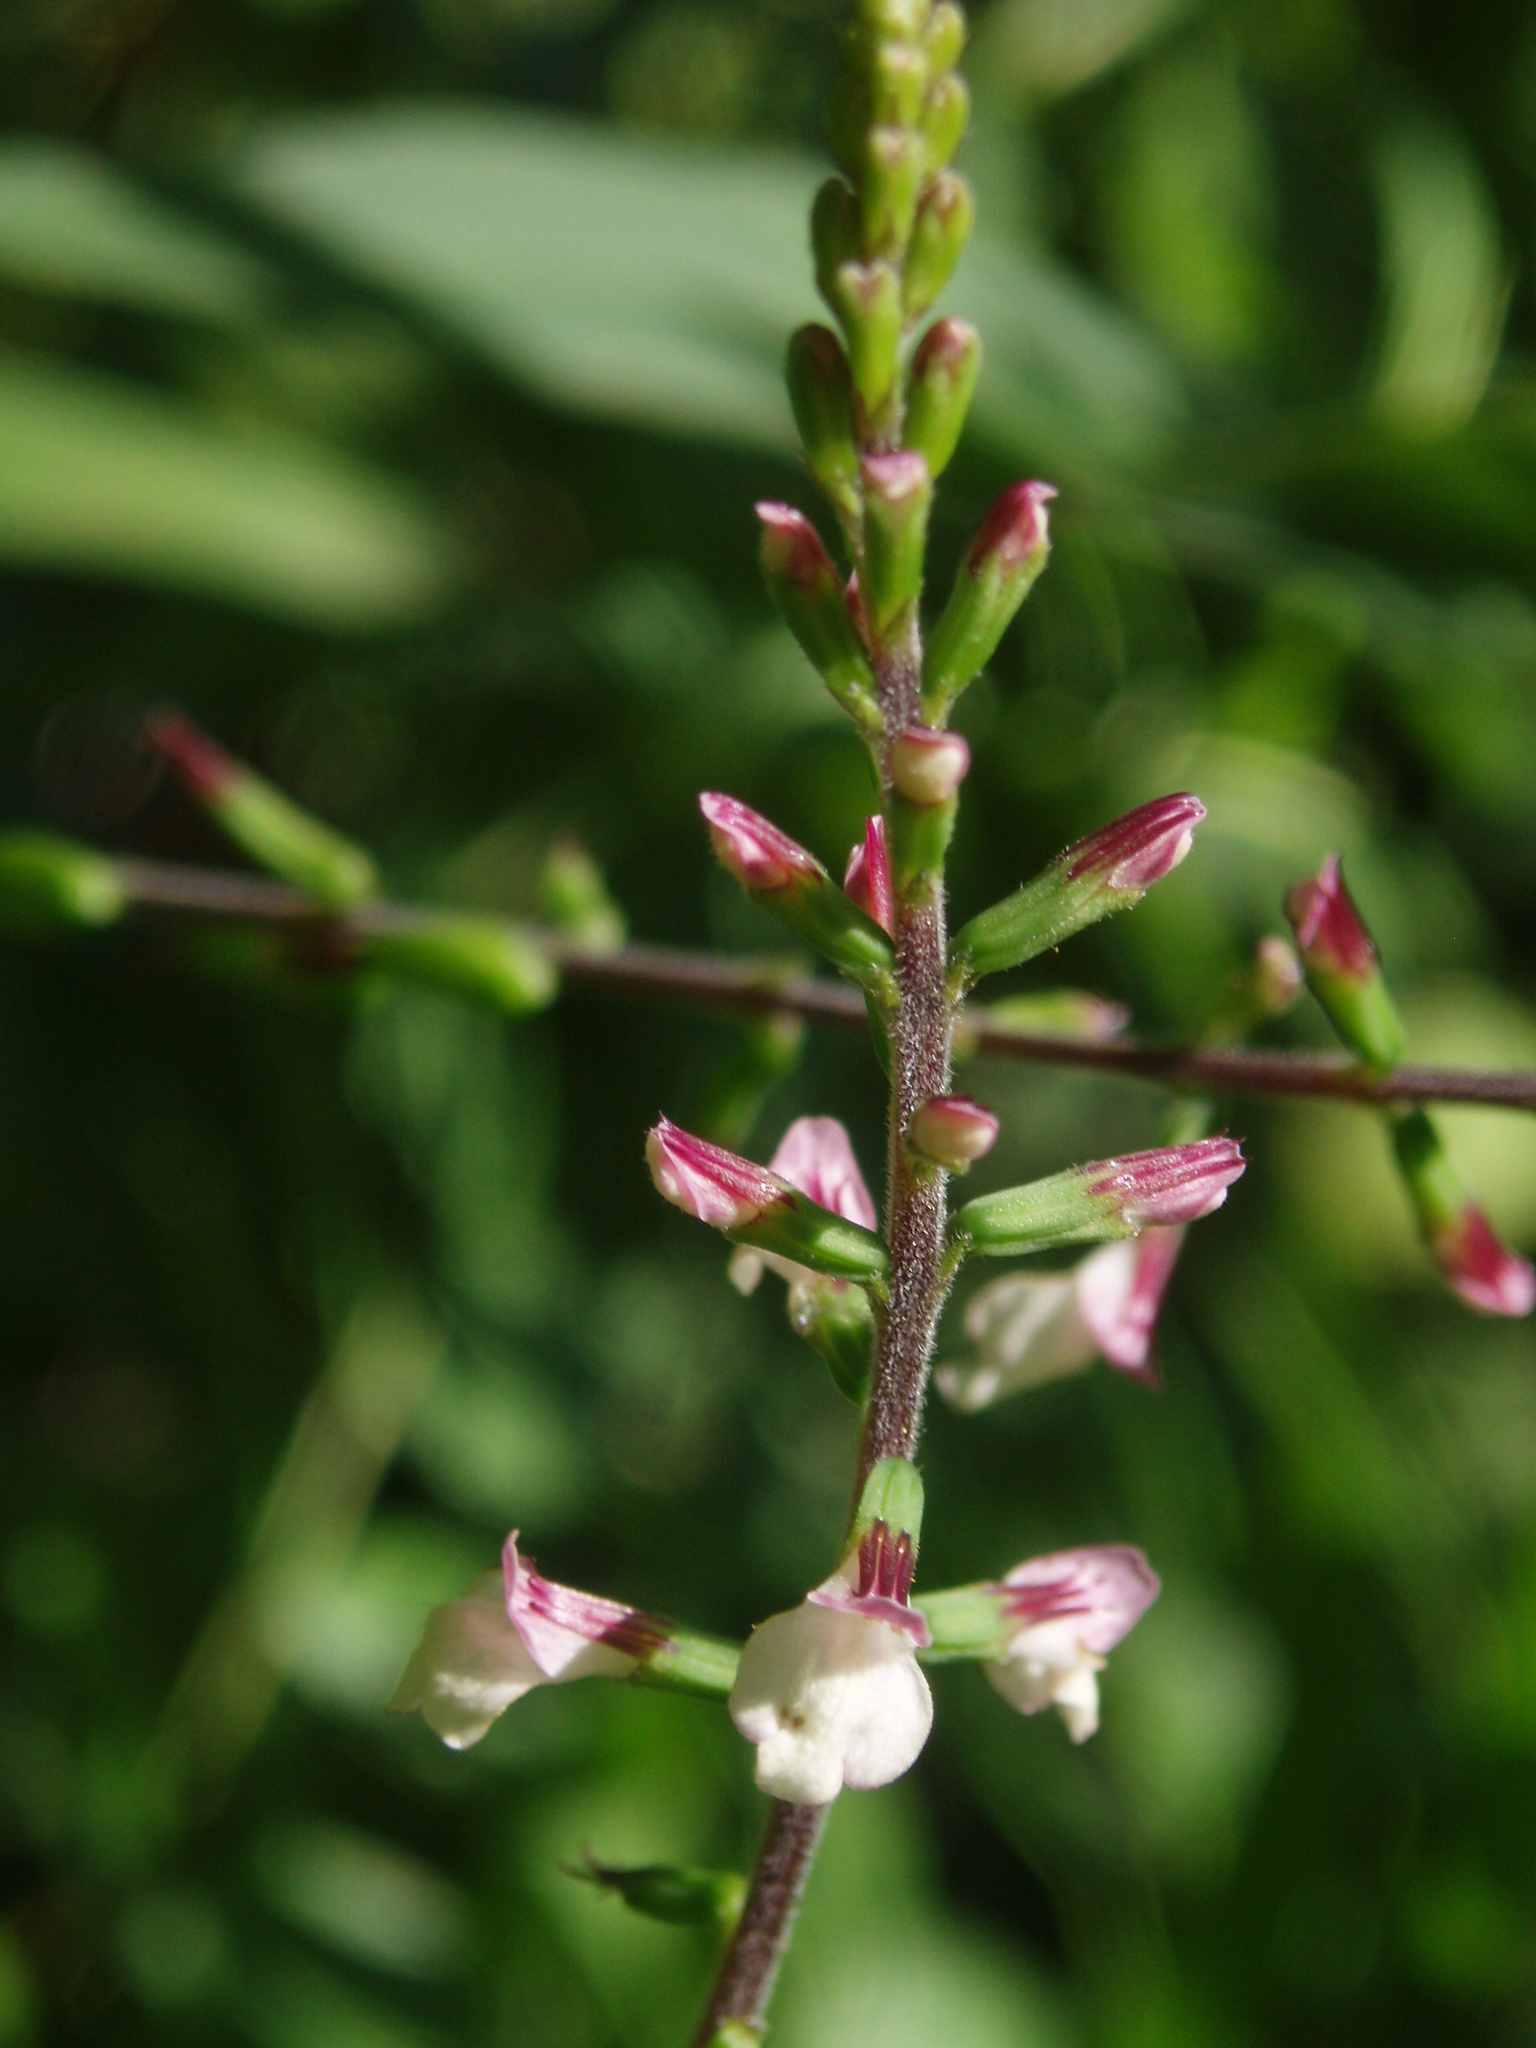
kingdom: Plantae
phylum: Tracheophyta
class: Magnoliopsida
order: Lamiales
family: Phrymaceae
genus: Phryma
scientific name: Phryma leptostachya
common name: American lopseed
